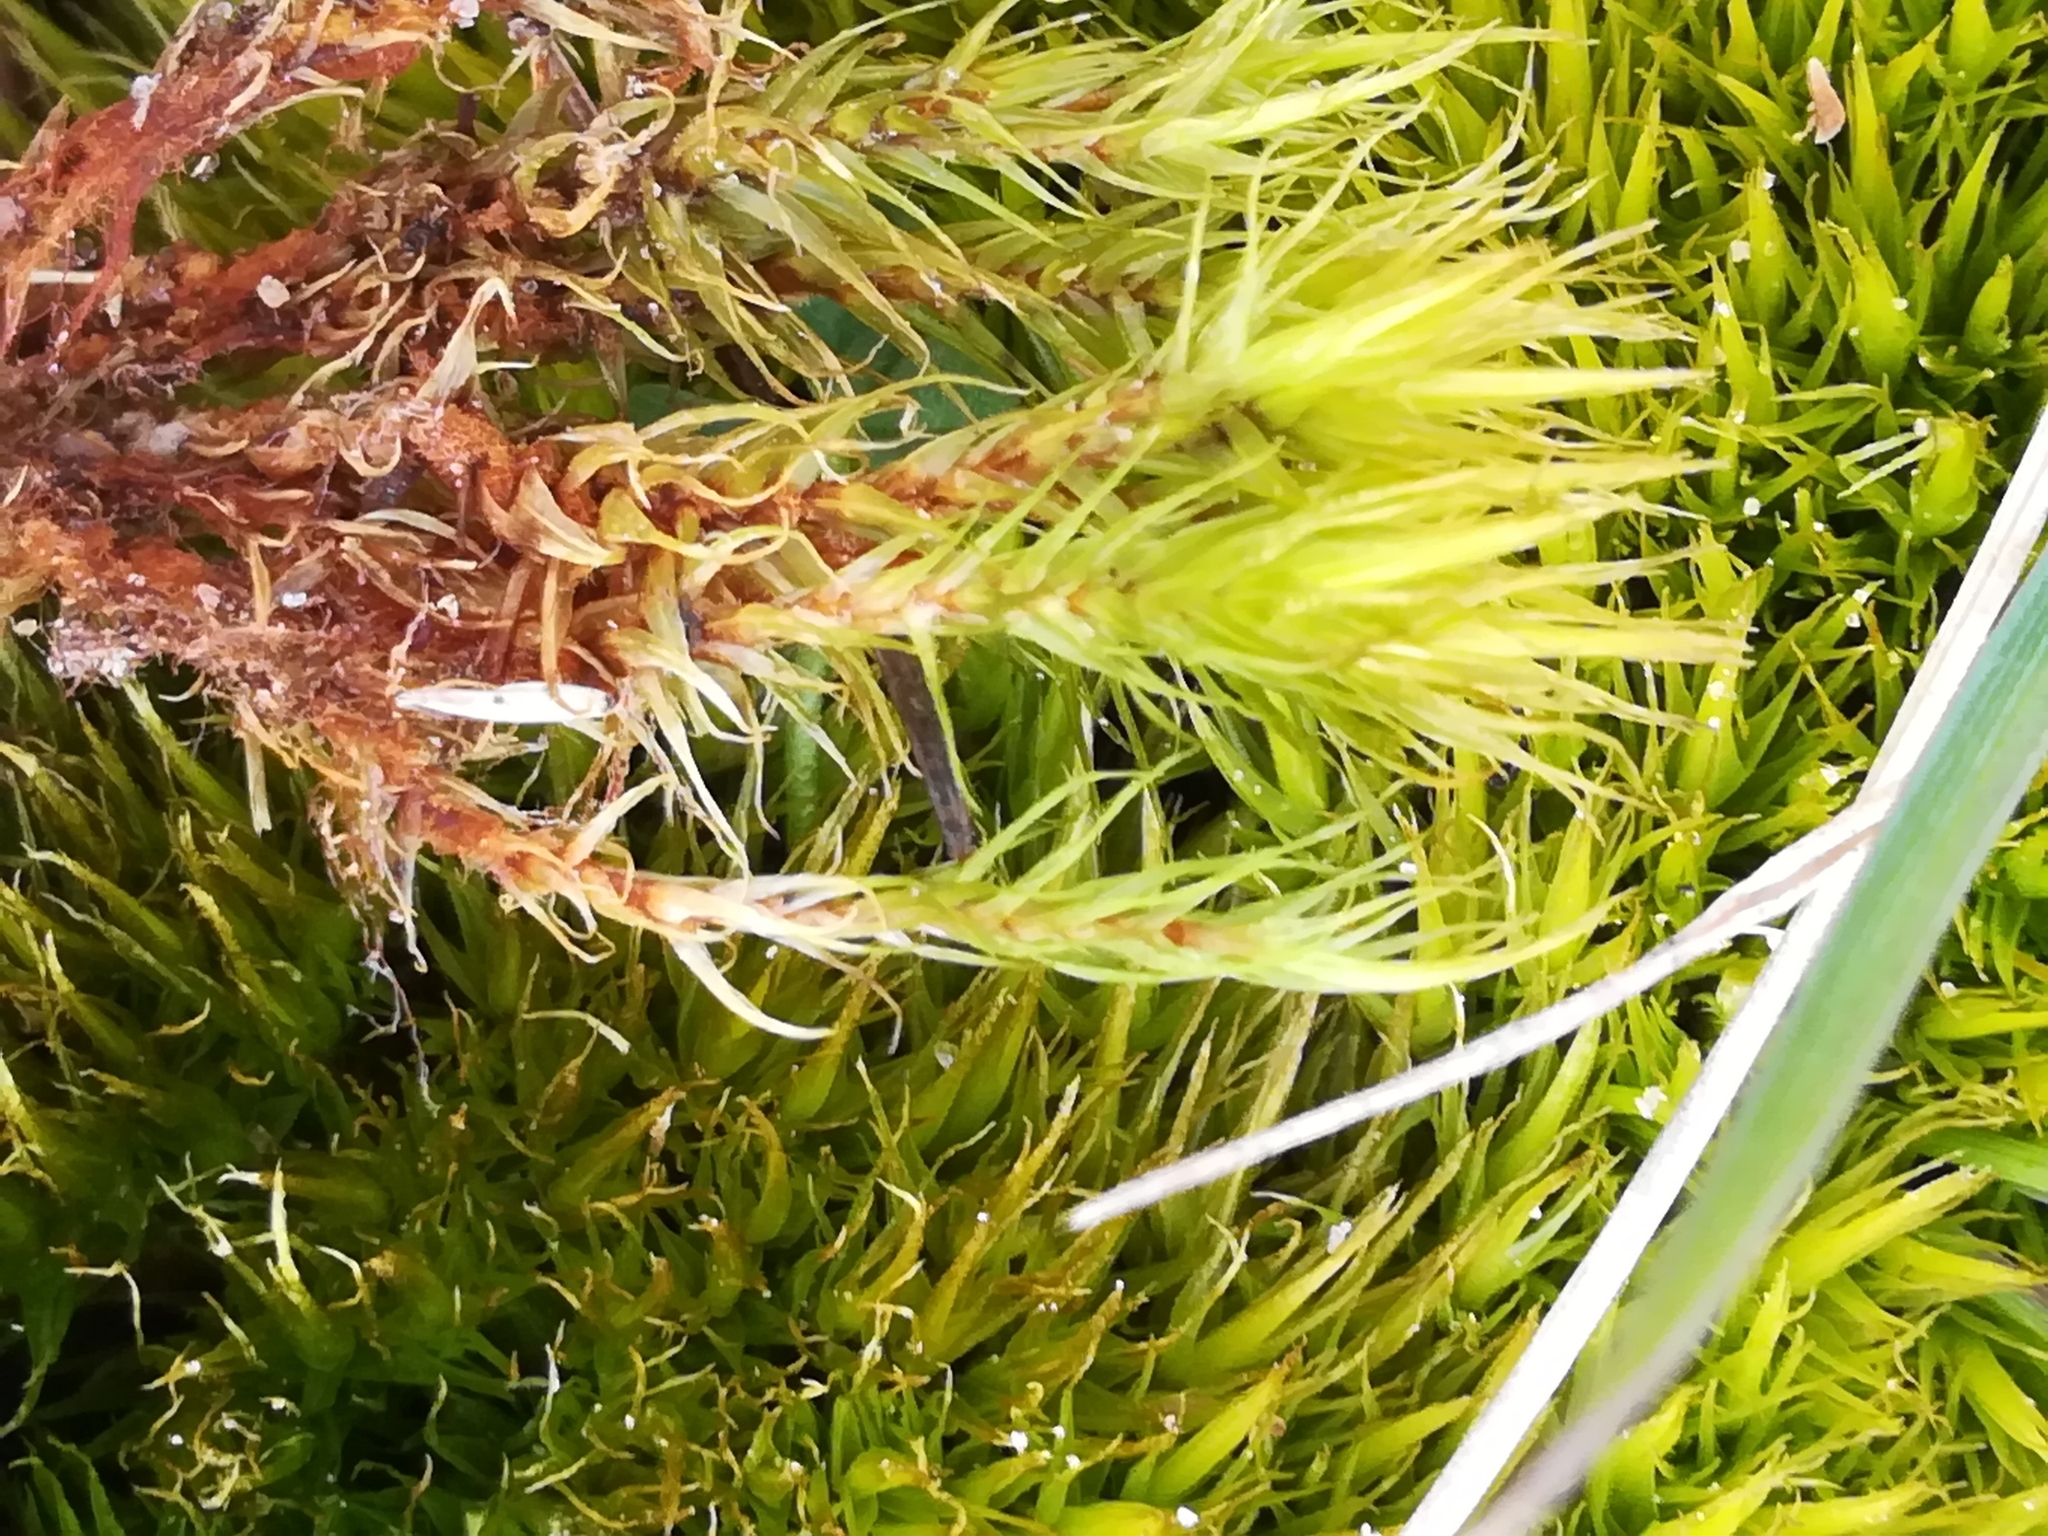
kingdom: Plantae
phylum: Bryophyta
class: Bryopsida
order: Dicranales
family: Dicranaceae
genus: Dicranum
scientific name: Dicranum scoparium
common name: Broom fork-moss
